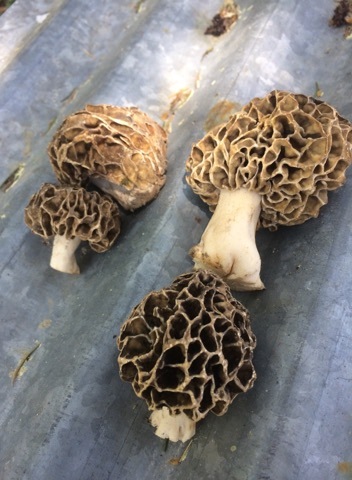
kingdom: Fungi
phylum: Ascomycota
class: Pezizomycetes
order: Pezizales
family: Morchellaceae
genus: Morchella
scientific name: Morchella esculenta
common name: Morel
